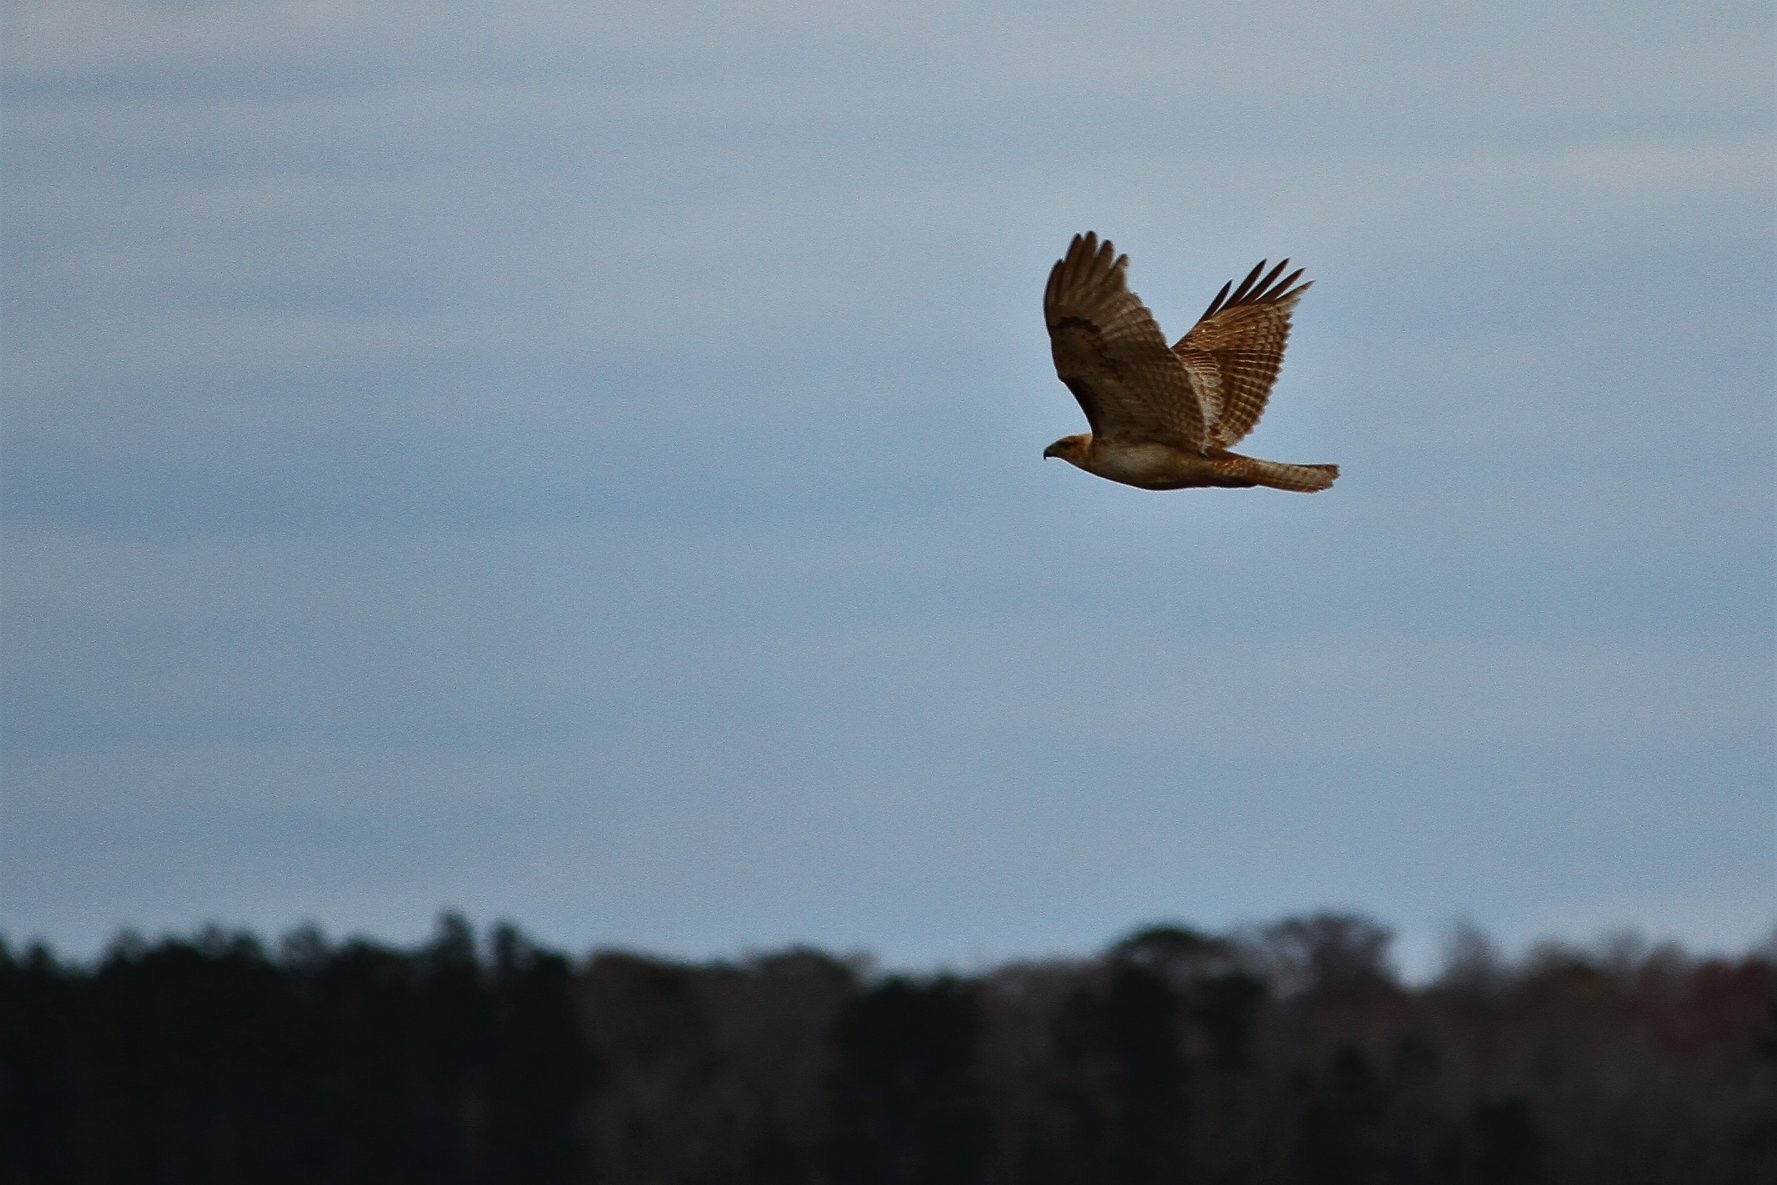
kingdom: Animalia
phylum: Chordata
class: Aves
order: Accipitriformes
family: Accipitridae
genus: Buteo
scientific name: Buteo jamaicensis
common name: Red-tailed hawk
